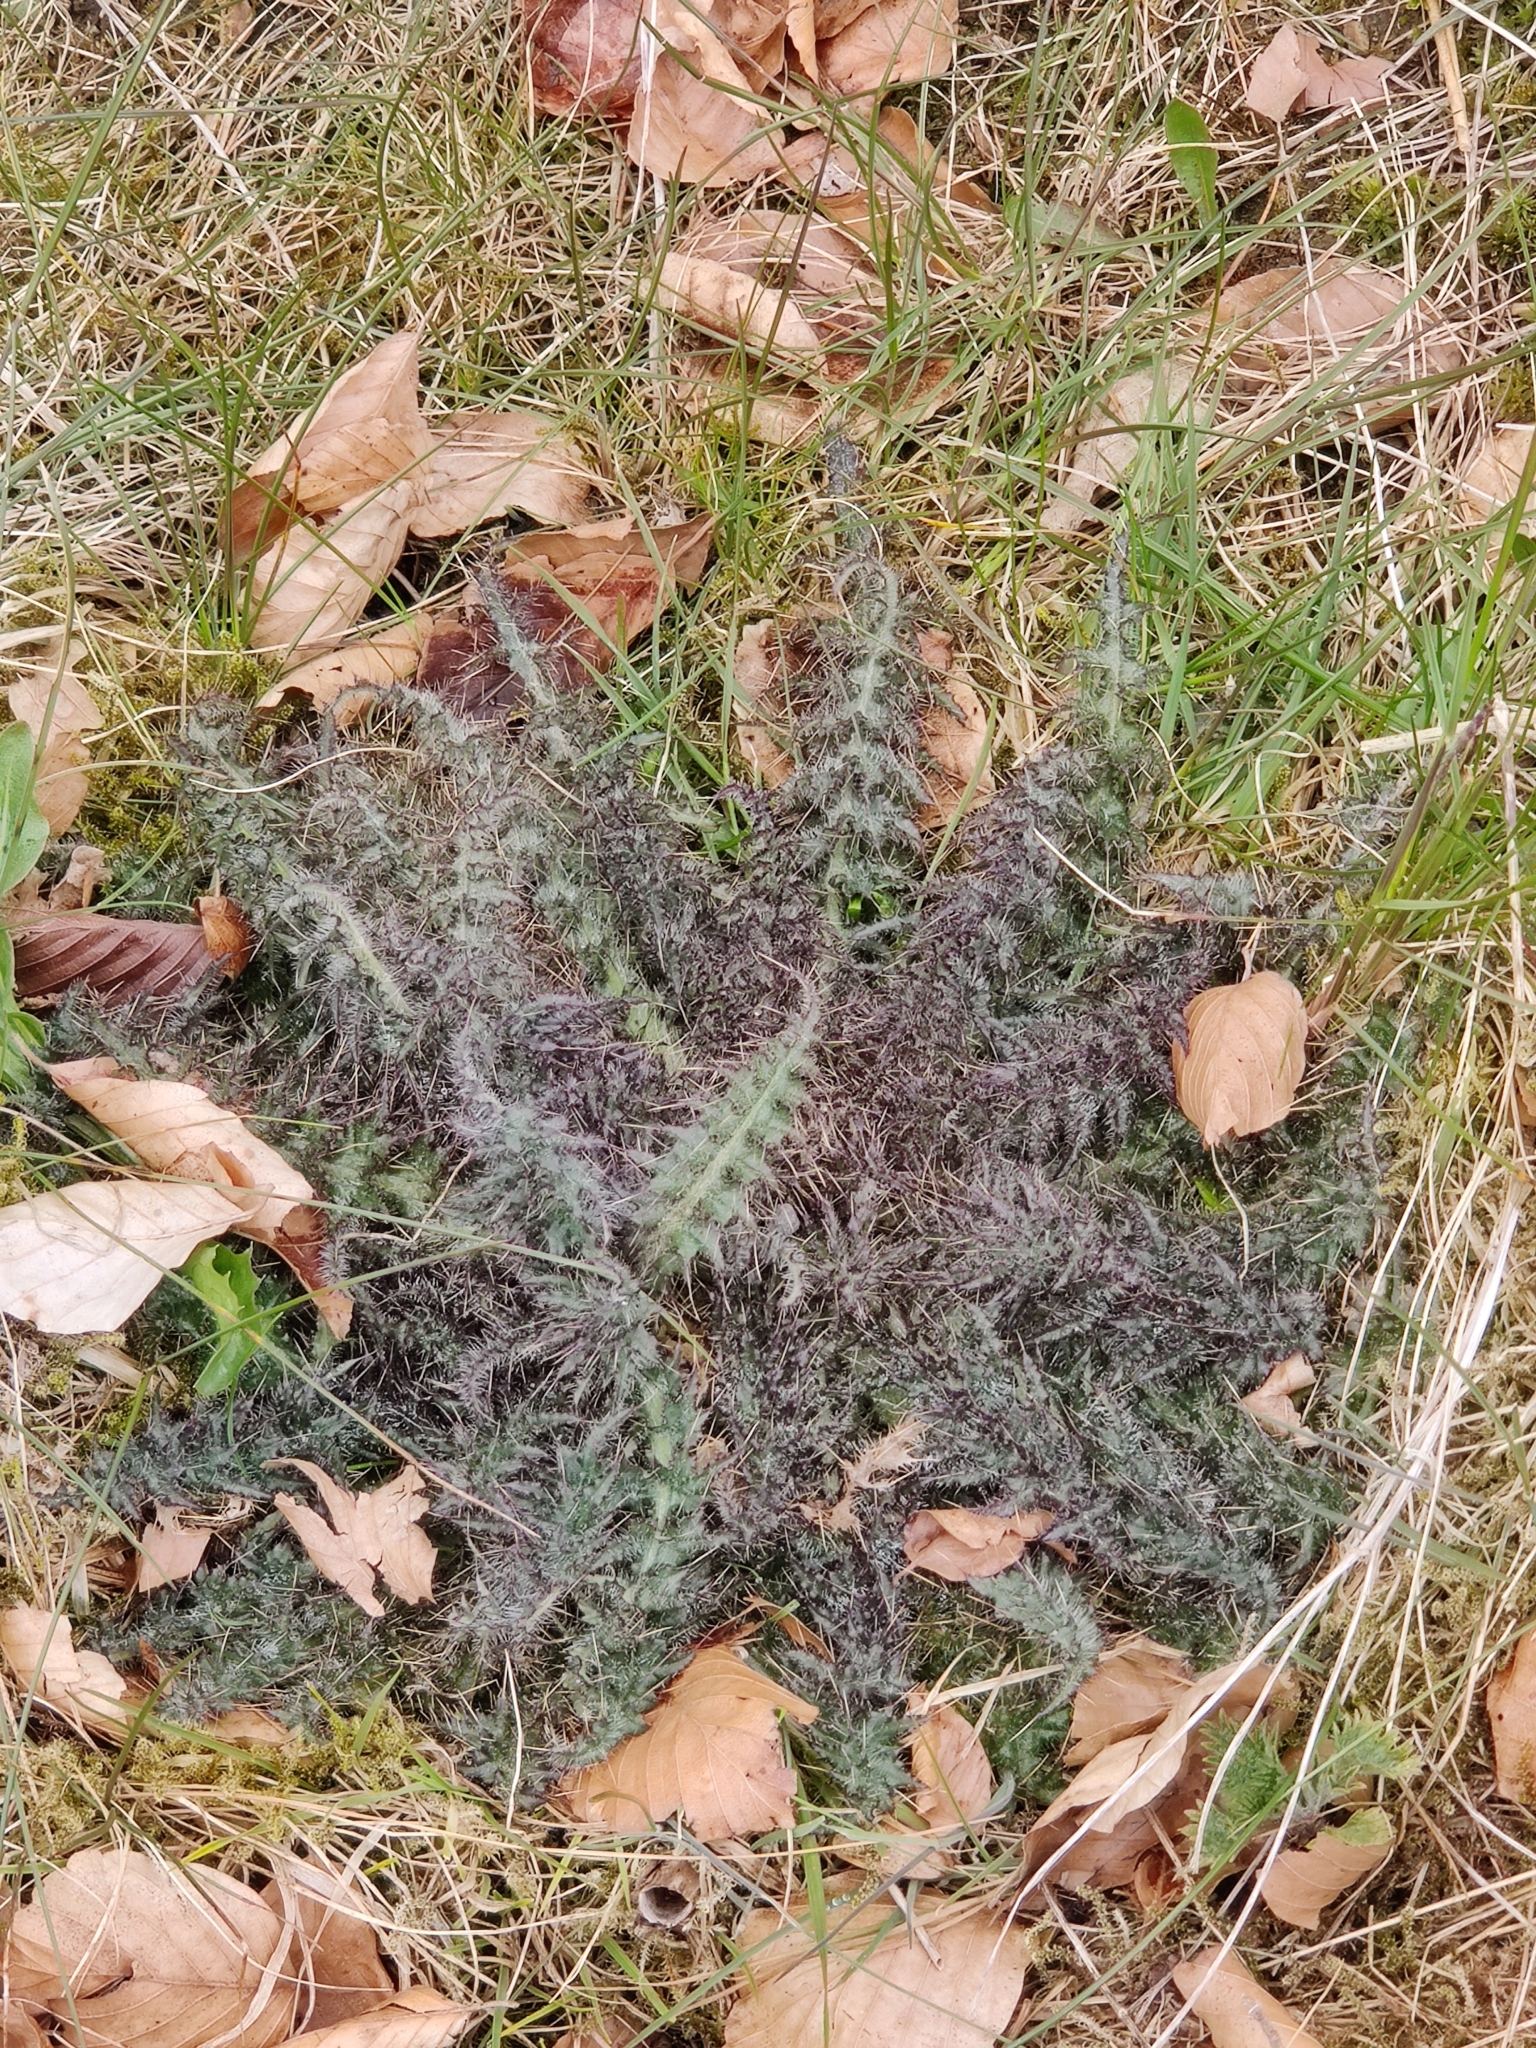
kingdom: Plantae
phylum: Tracheophyta
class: Magnoliopsida
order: Asterales
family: Asteraceae
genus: Cirsium
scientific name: Cirsium palustre
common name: Marsh thistle
